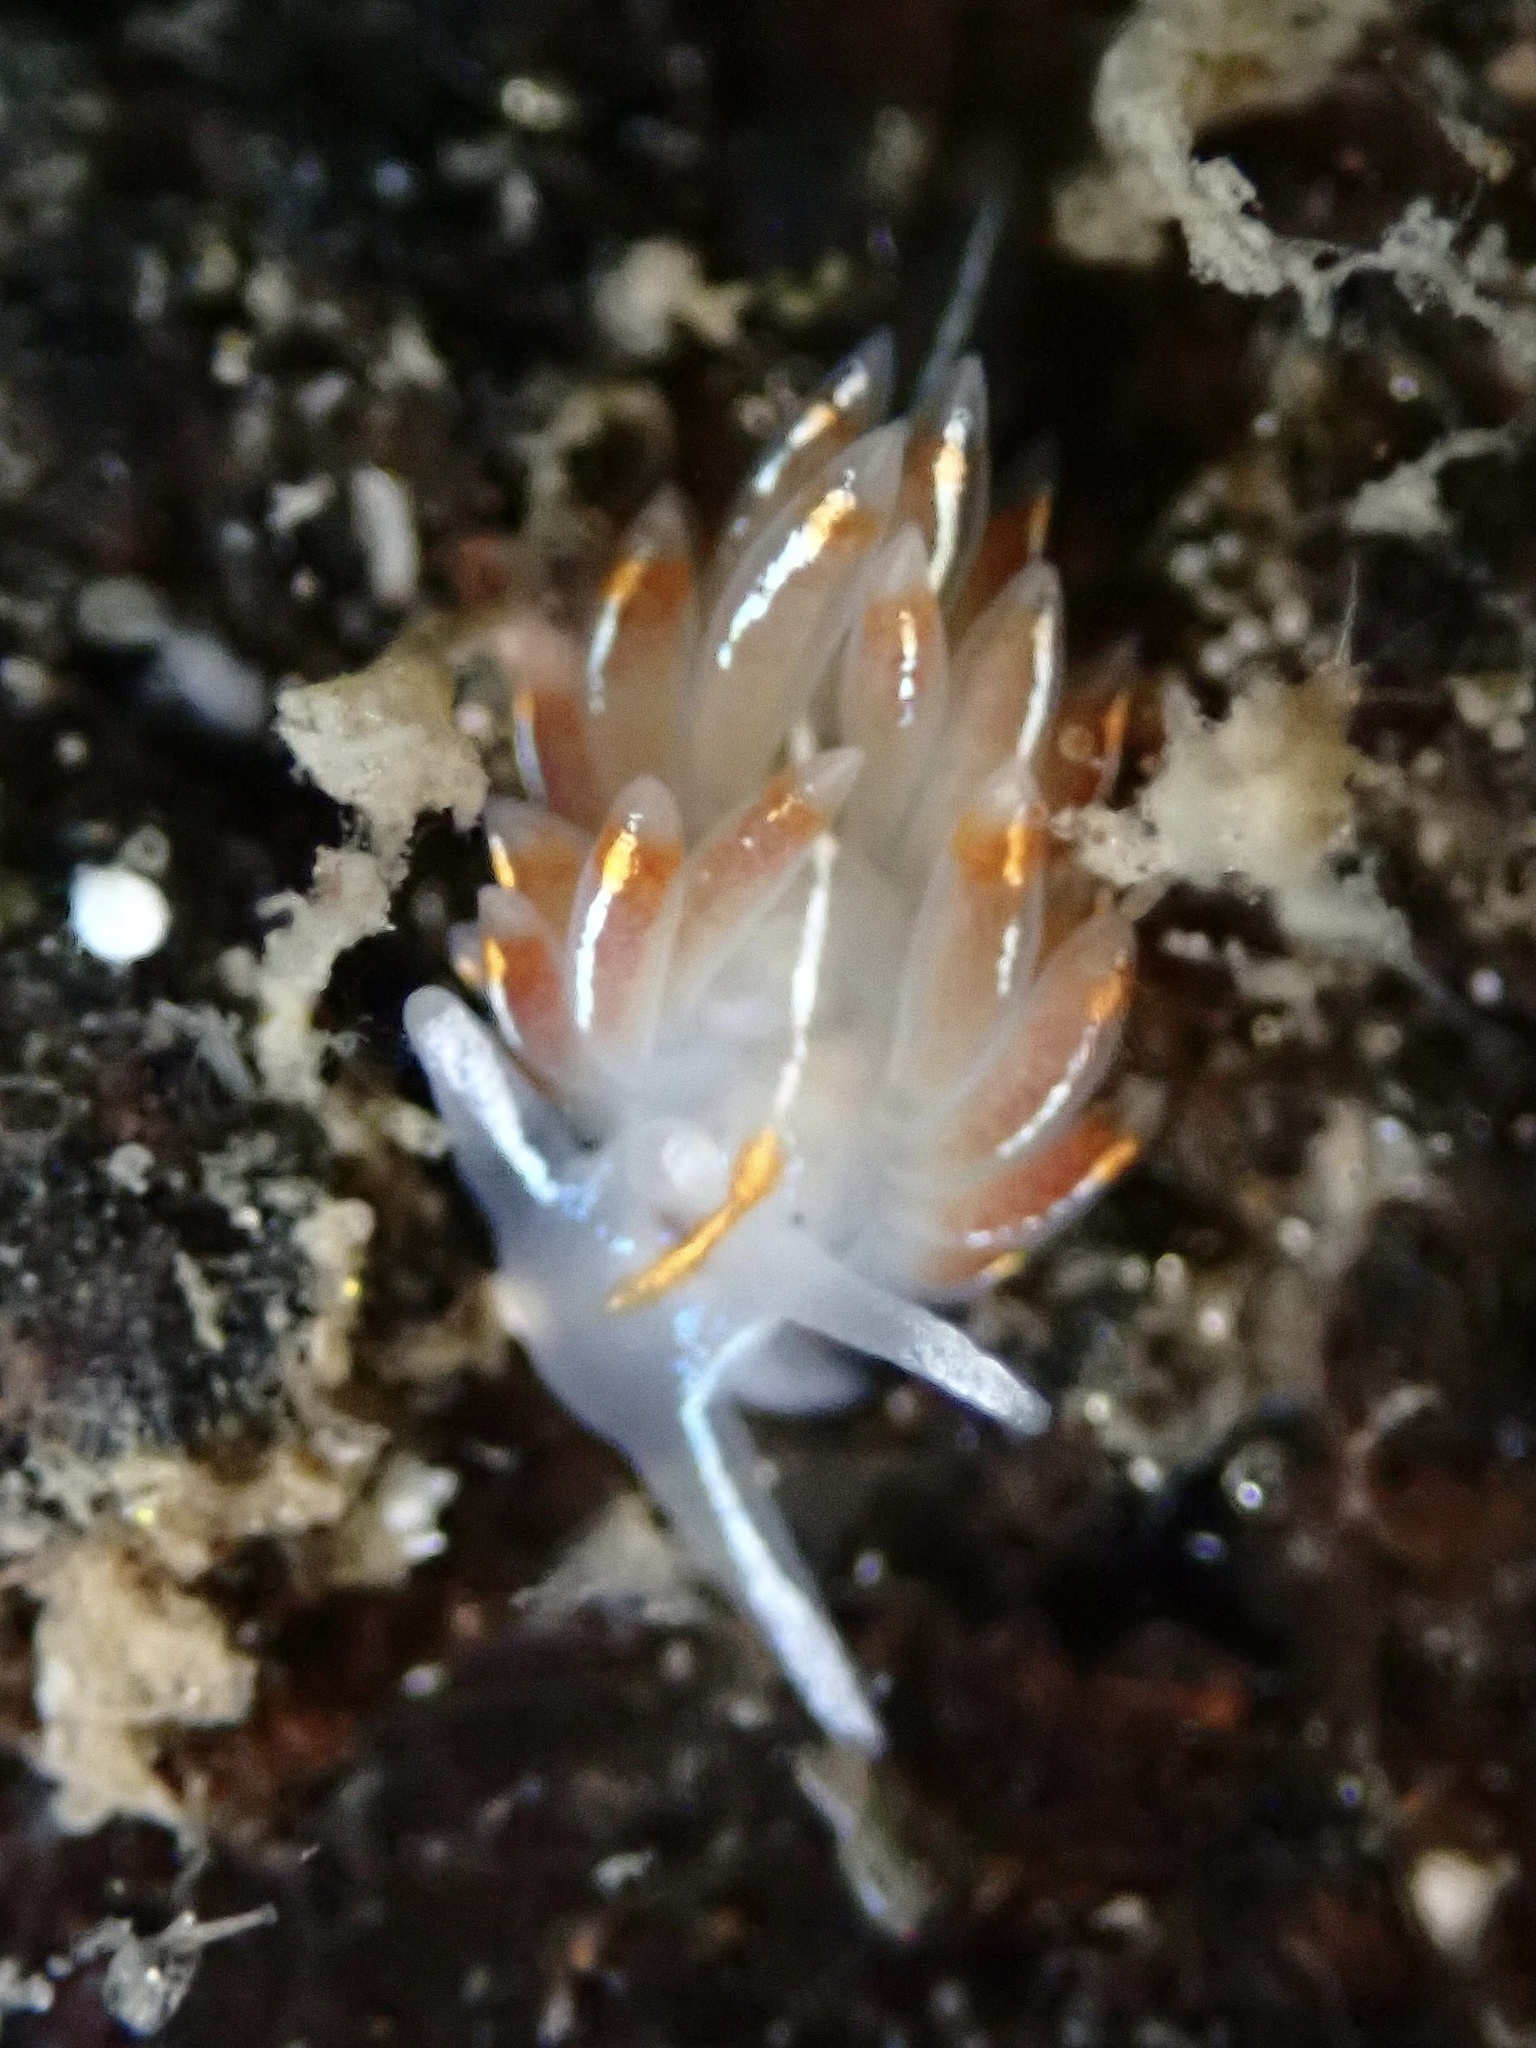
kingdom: Animalia
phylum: Mollusca
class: Gastropoda
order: Nudibranchia
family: Myrrhinidae
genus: Hermissenda
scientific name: Hermissenda crassicornis
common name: Hermissenda
